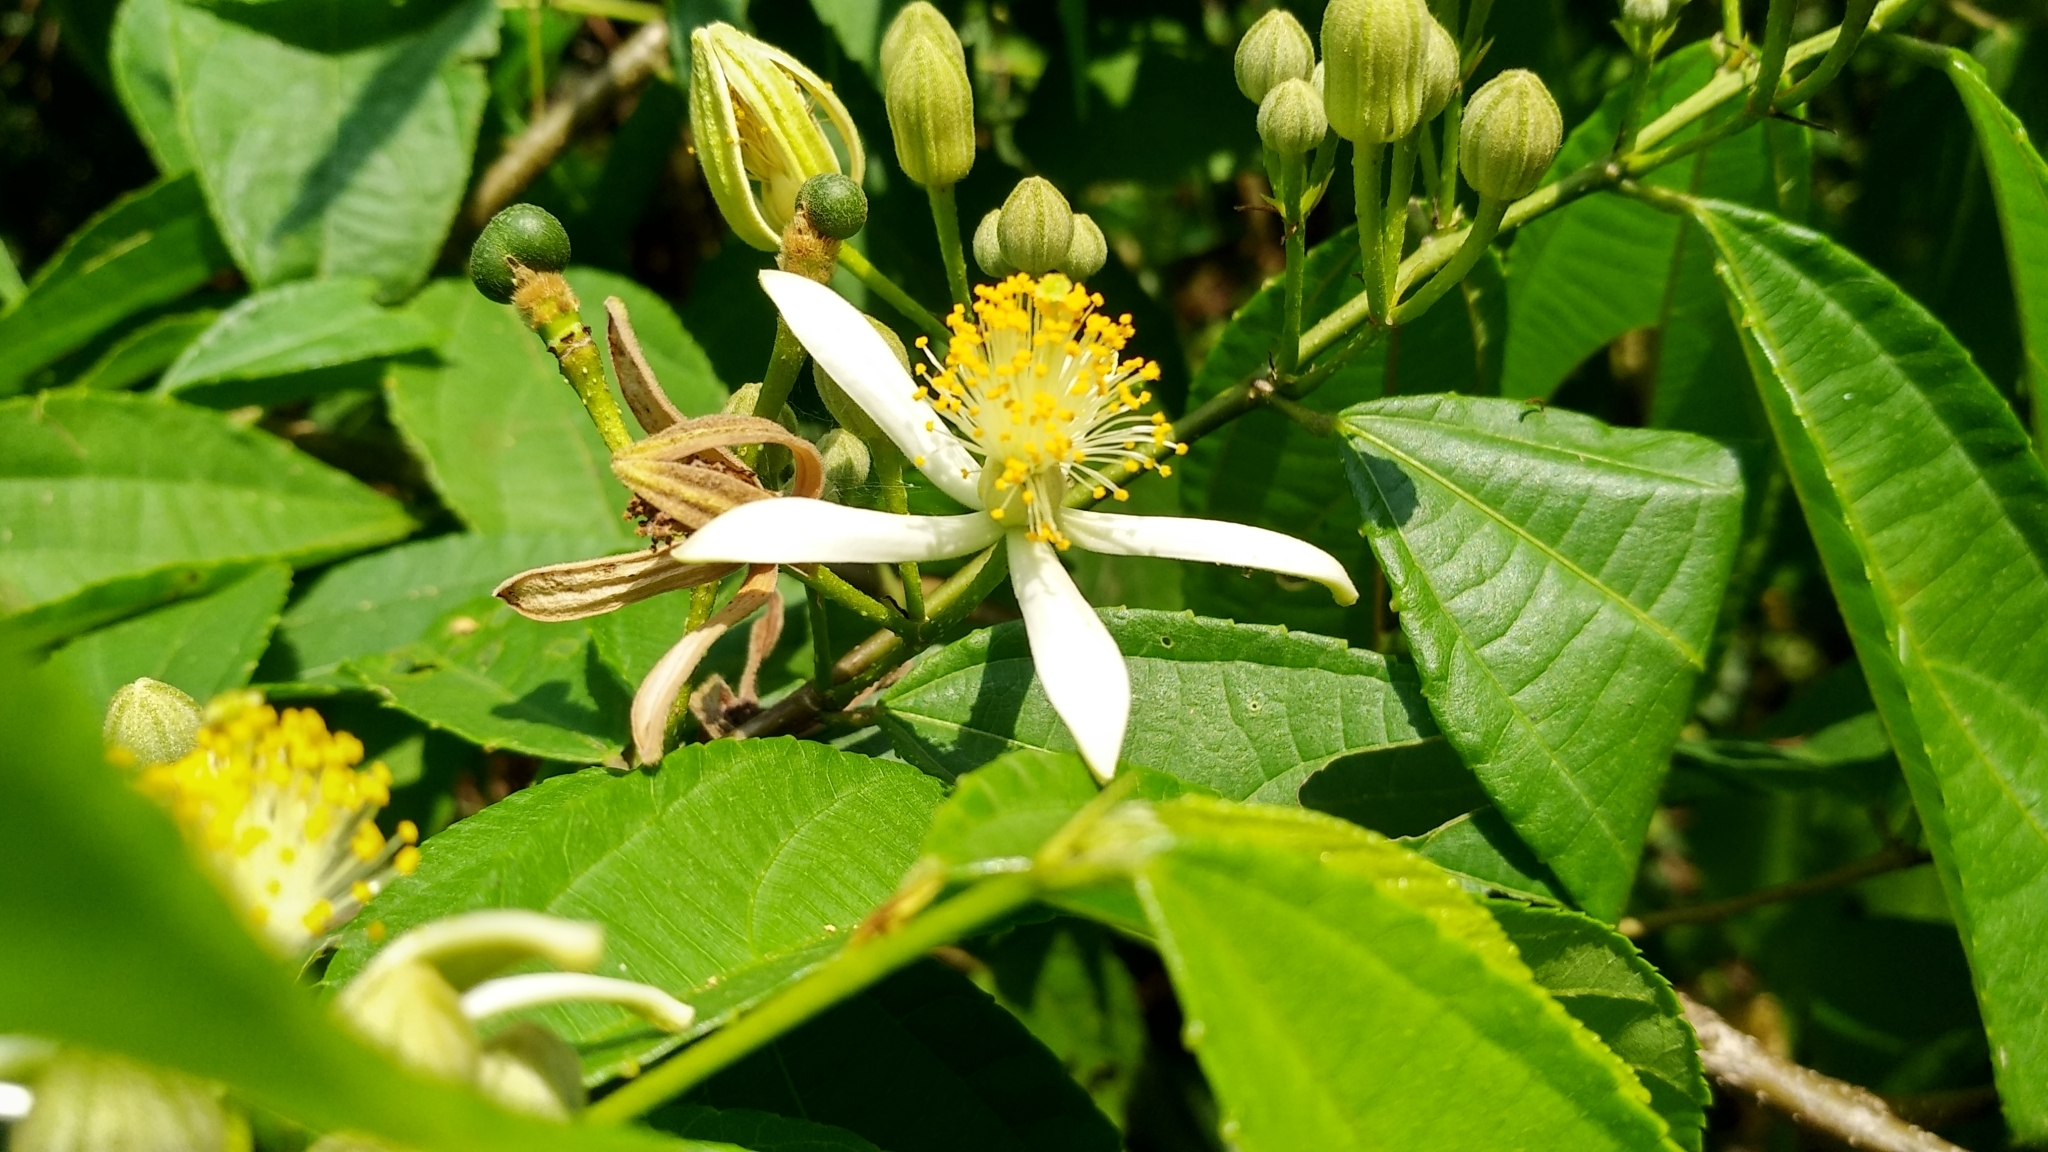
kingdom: Plantae
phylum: Tracheophyta
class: Magnoliopsida
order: Malvales
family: Malvaceae
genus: Grewia
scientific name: Grewia serrulata
